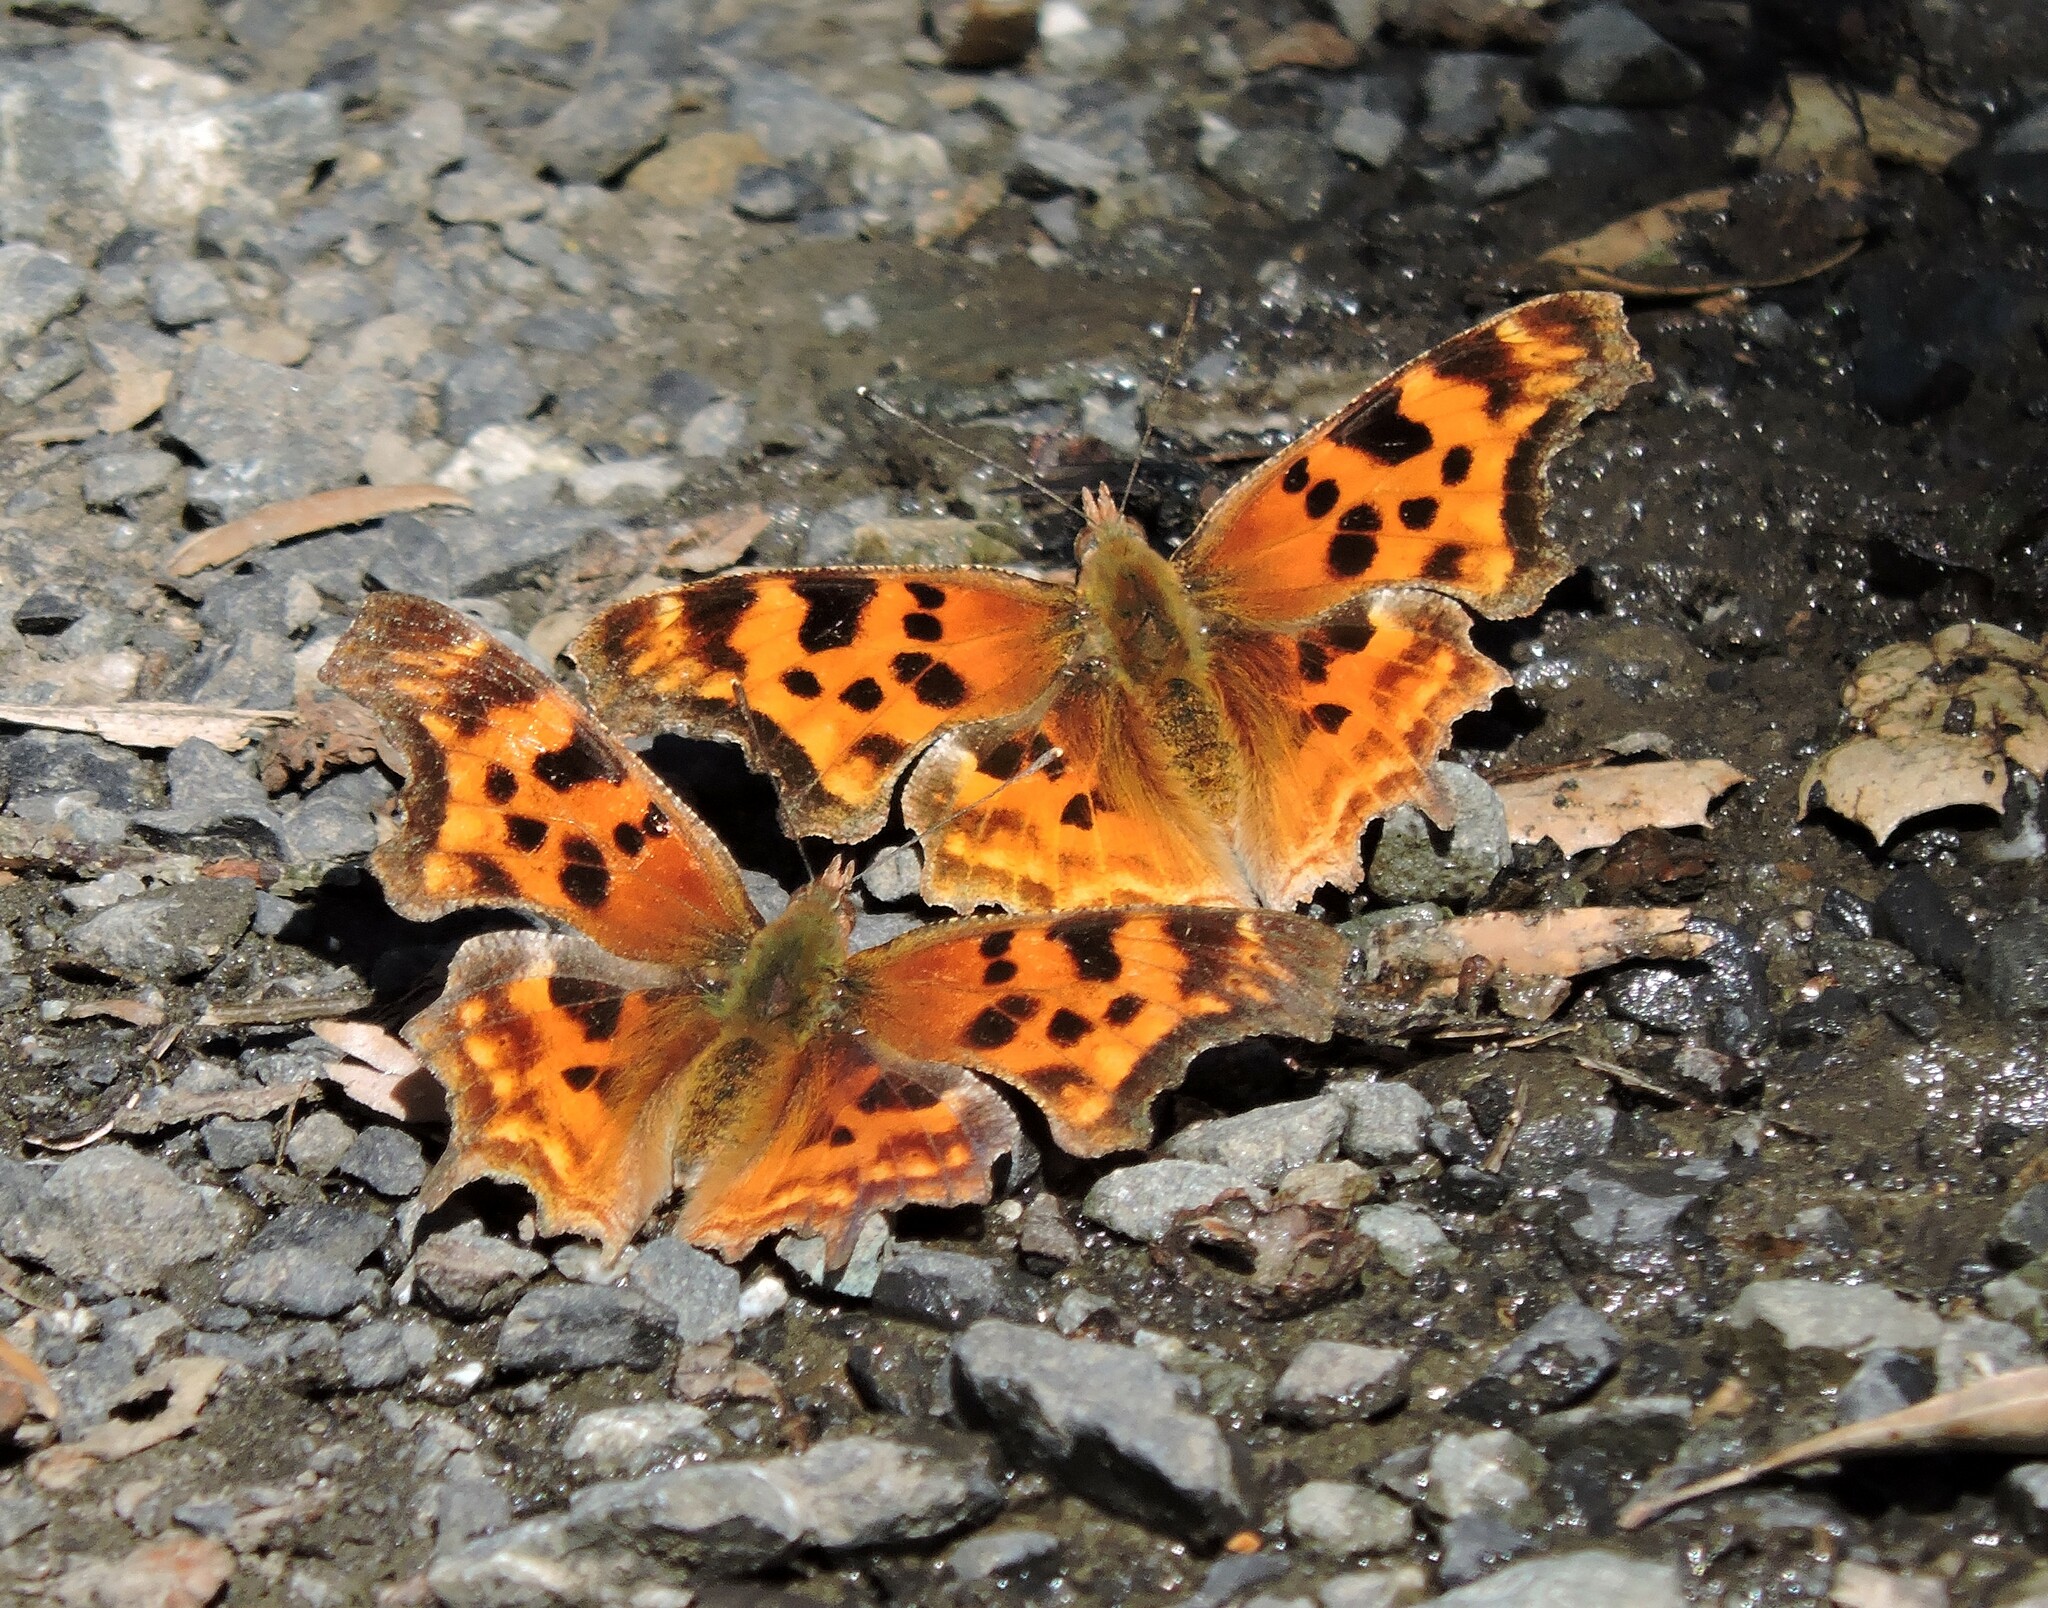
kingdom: Animalia
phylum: Arthropoda
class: Insecta
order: Lepidoptera
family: Nymphalidae
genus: Polygonia
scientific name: Polygonia satyrus
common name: Satyr angle wing
